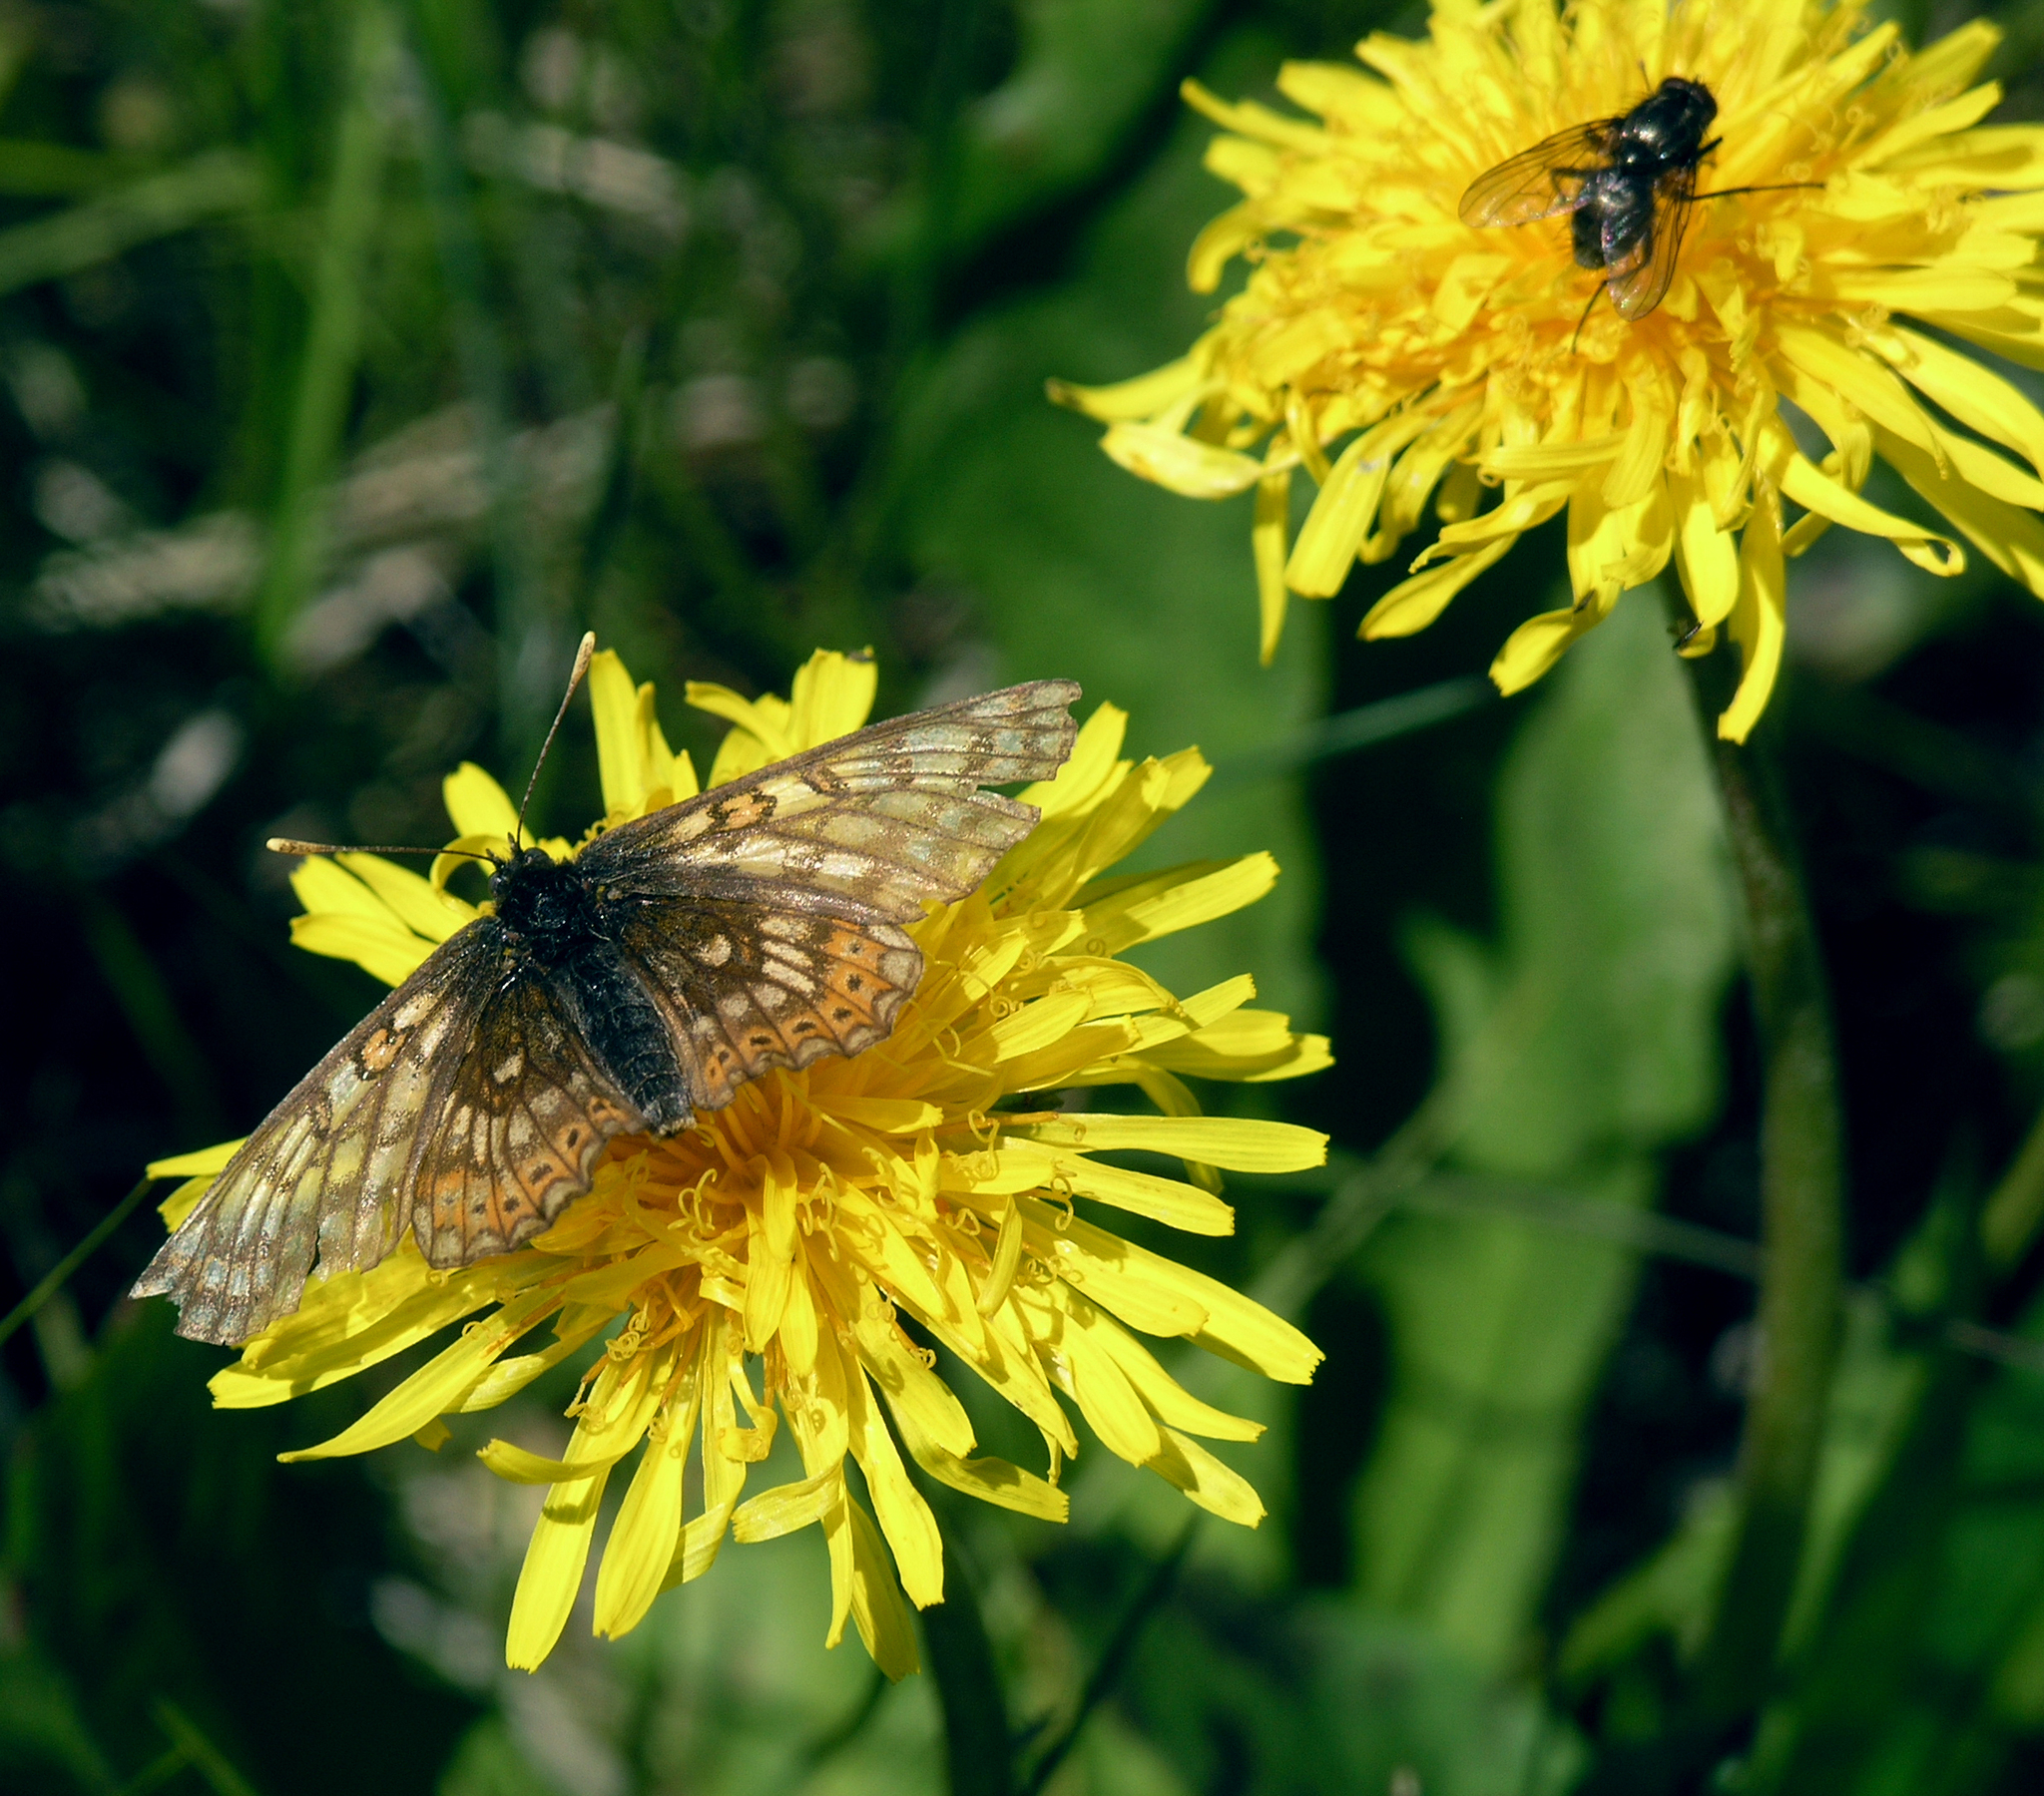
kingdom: Animalia
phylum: Arthropoda
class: Insecta
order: Lepidoptera
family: Nymphalidae
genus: Euphydryas
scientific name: Euphydryas aurinia
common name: Marsh fritillary
